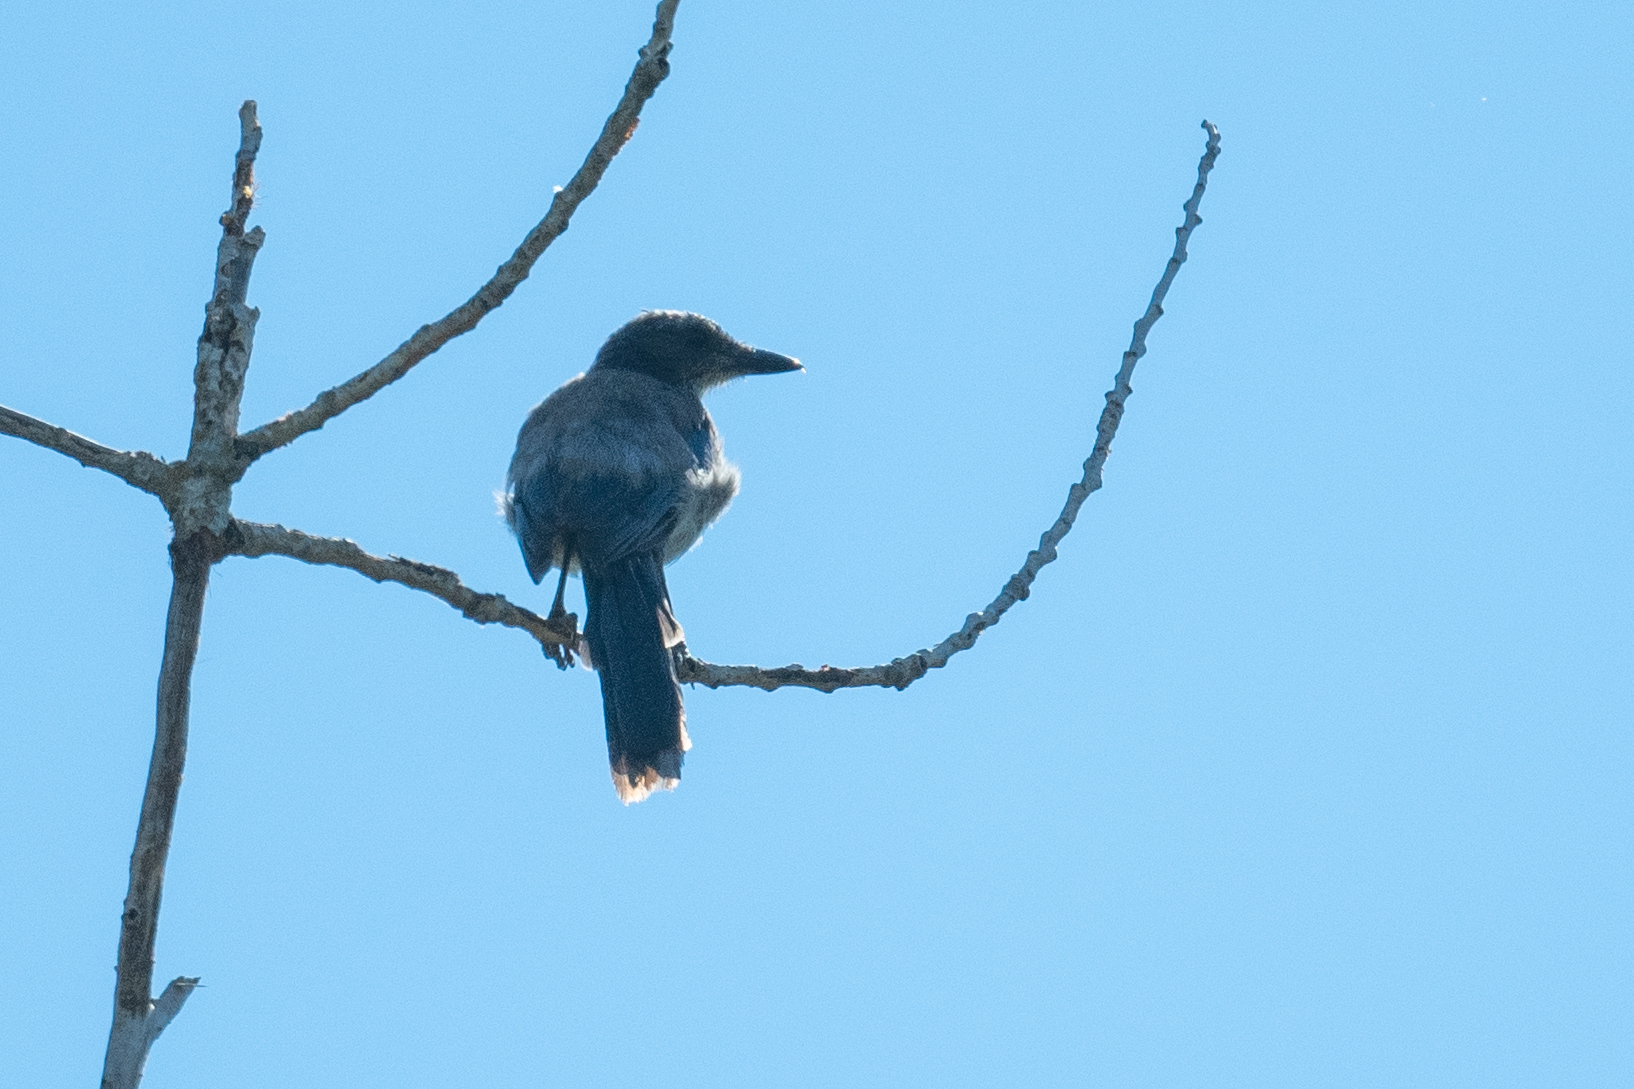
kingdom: Animalia
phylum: Chordata
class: Aves
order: Passeriformes
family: Corvidae
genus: Aphelocoma
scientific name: Aphelocoma californica
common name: California scrub-jay
